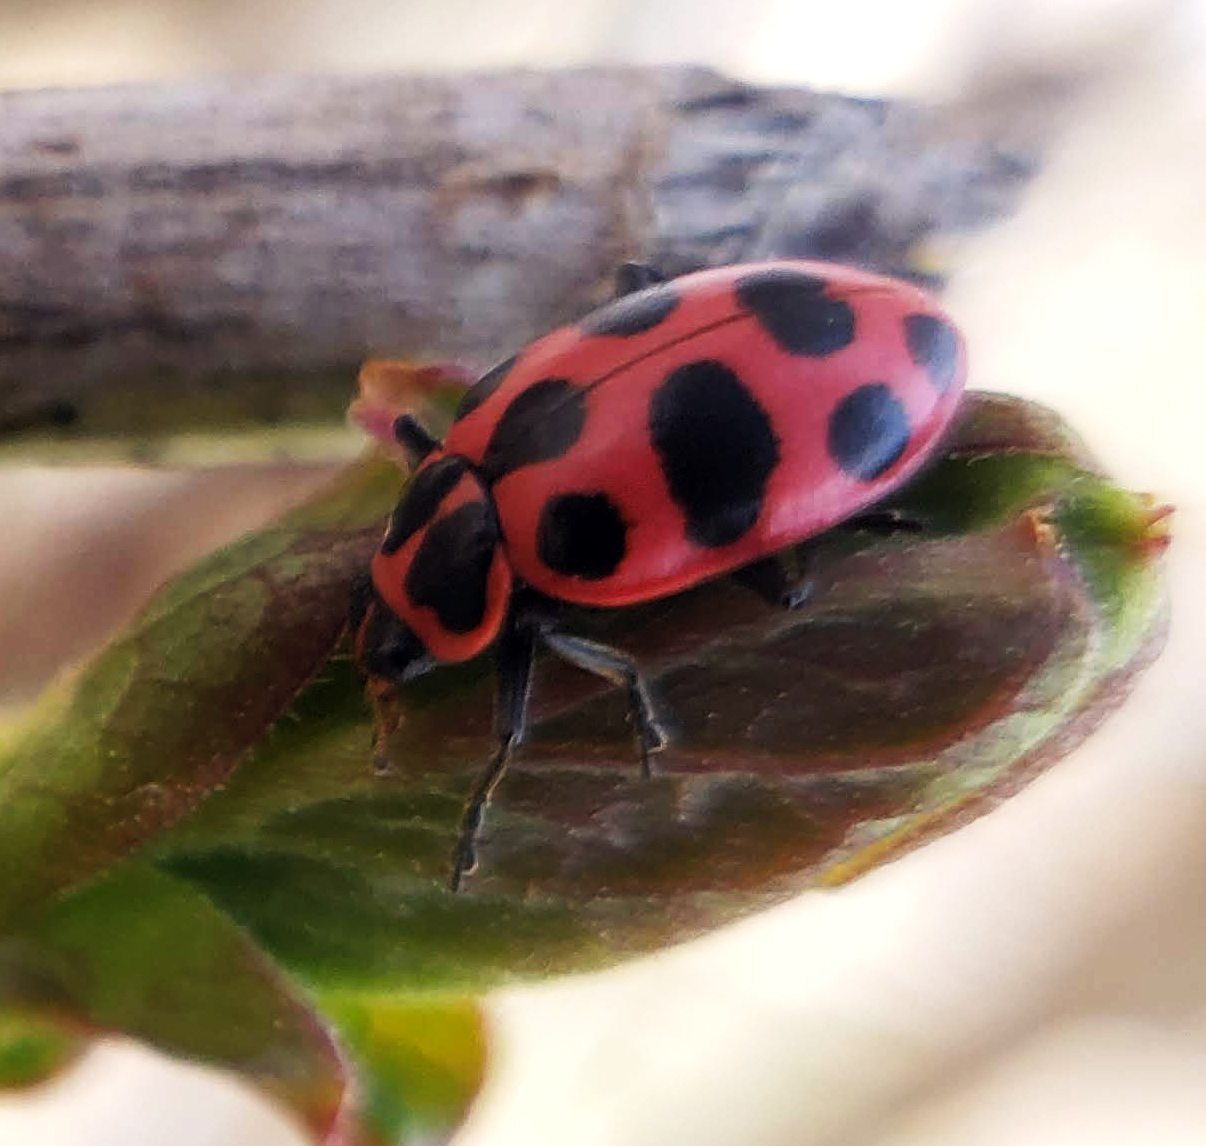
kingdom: Animalia
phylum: Arthropoda
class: Insecta
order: Coleoptera
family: Coccinellidae
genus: Coleomegilla
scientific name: Coleomegilla maculata
